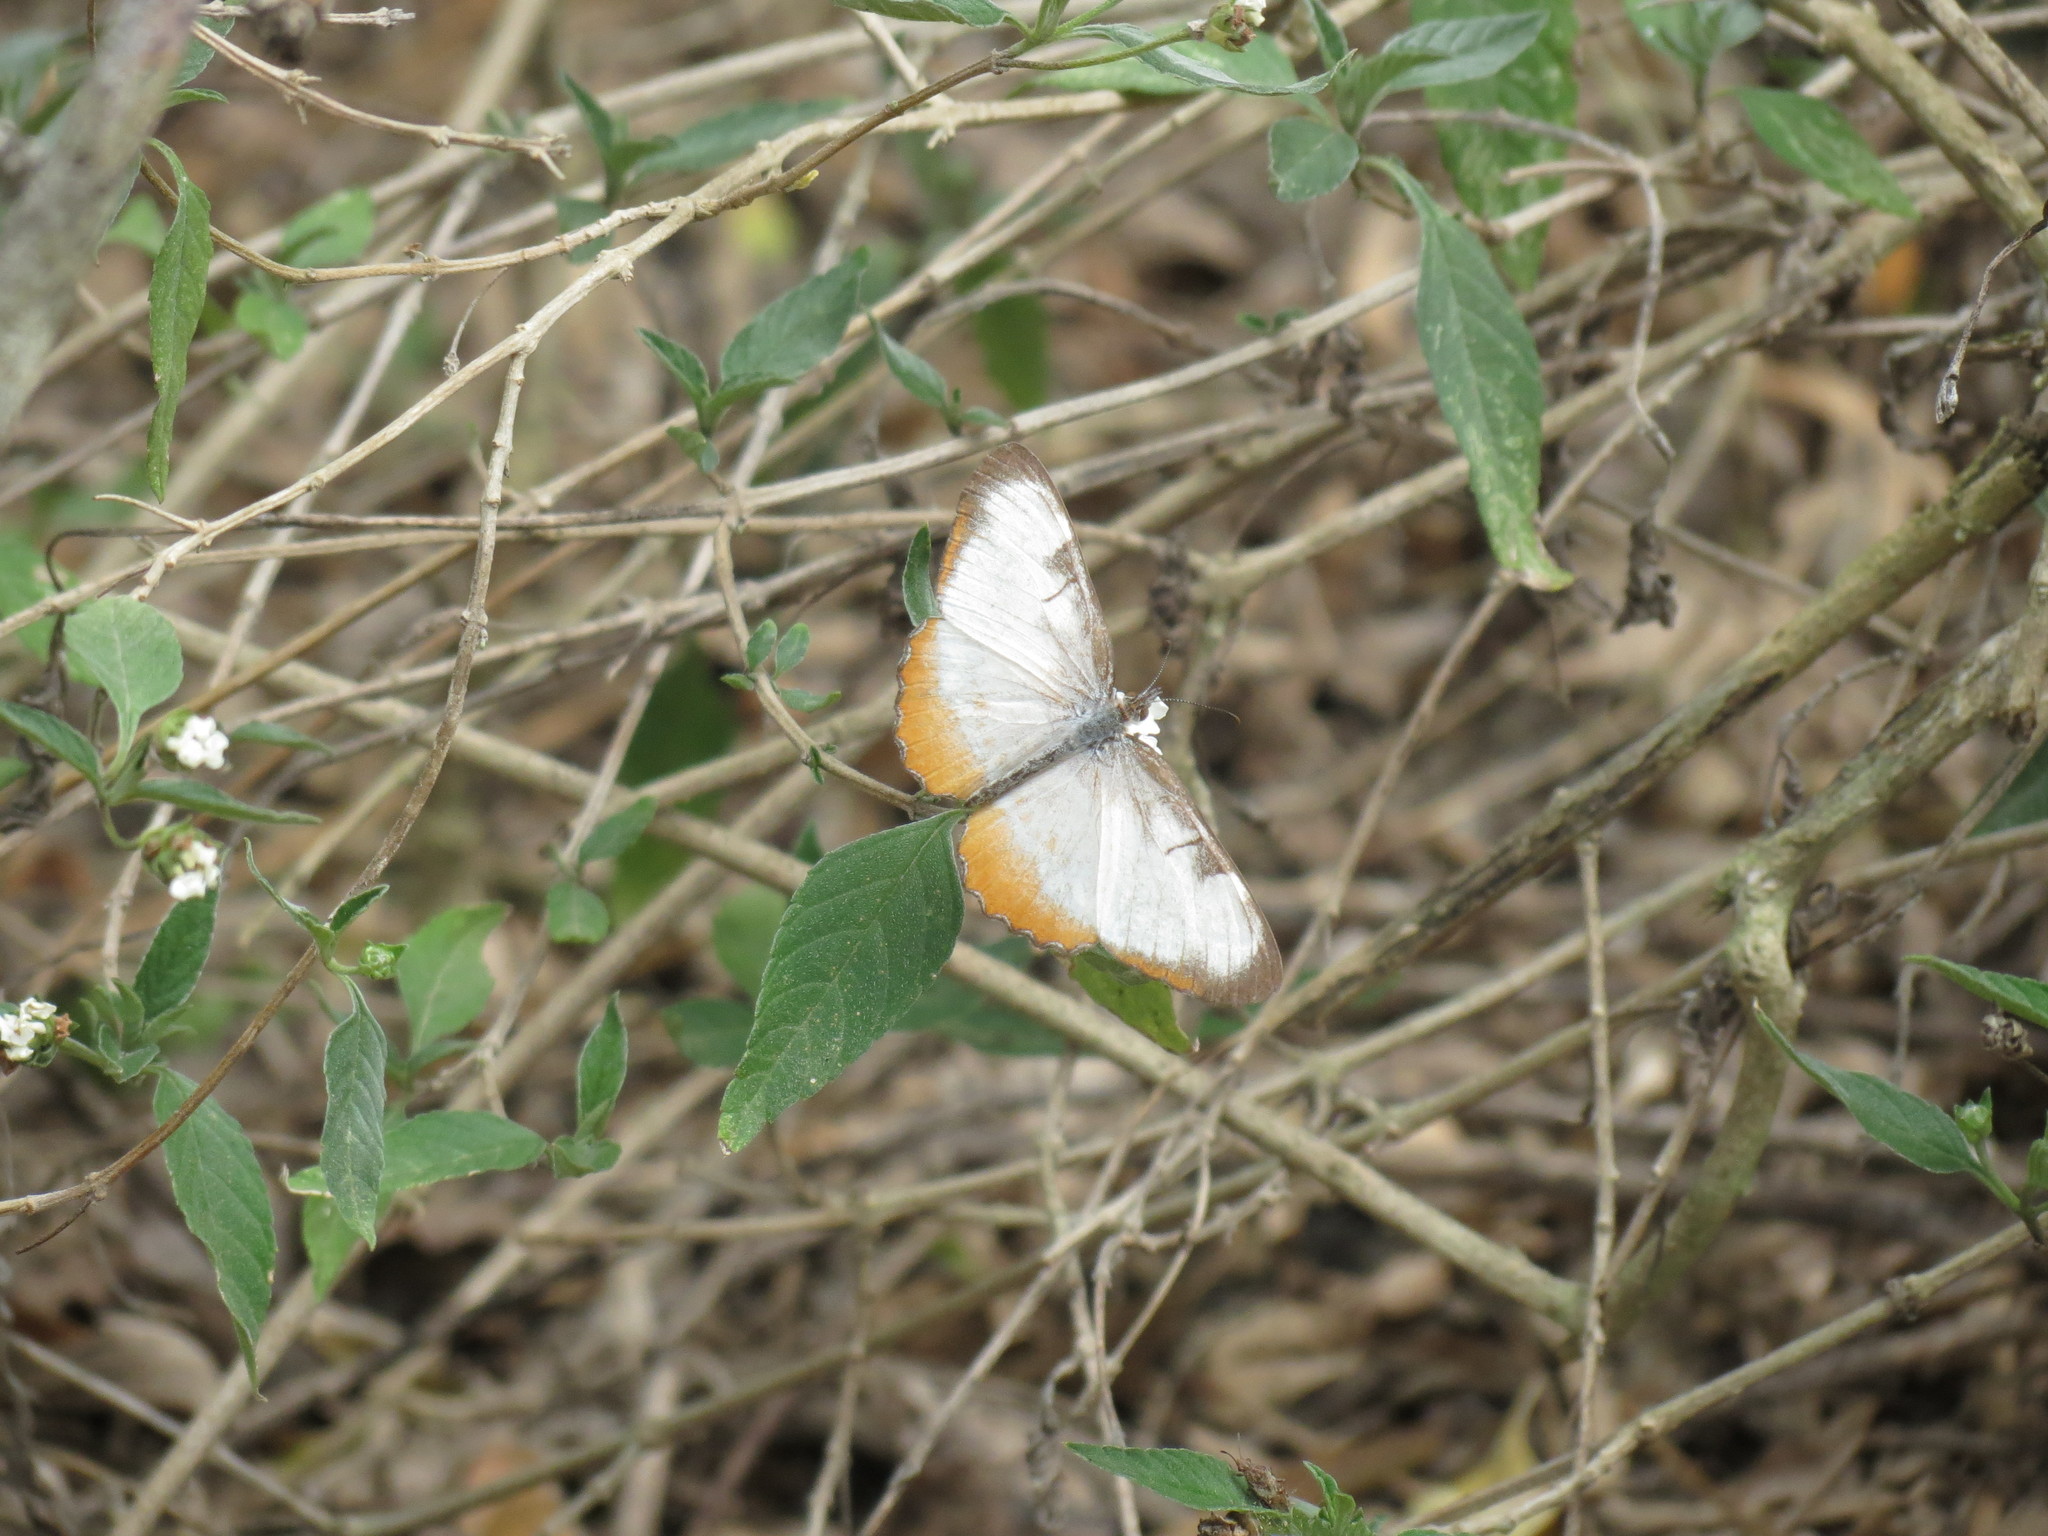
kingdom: Animalia
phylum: Arthropoda
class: Insecta
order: Lepidoptera
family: Nymphalidae
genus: Mestra
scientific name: Mestra amymone
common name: Common mestra
